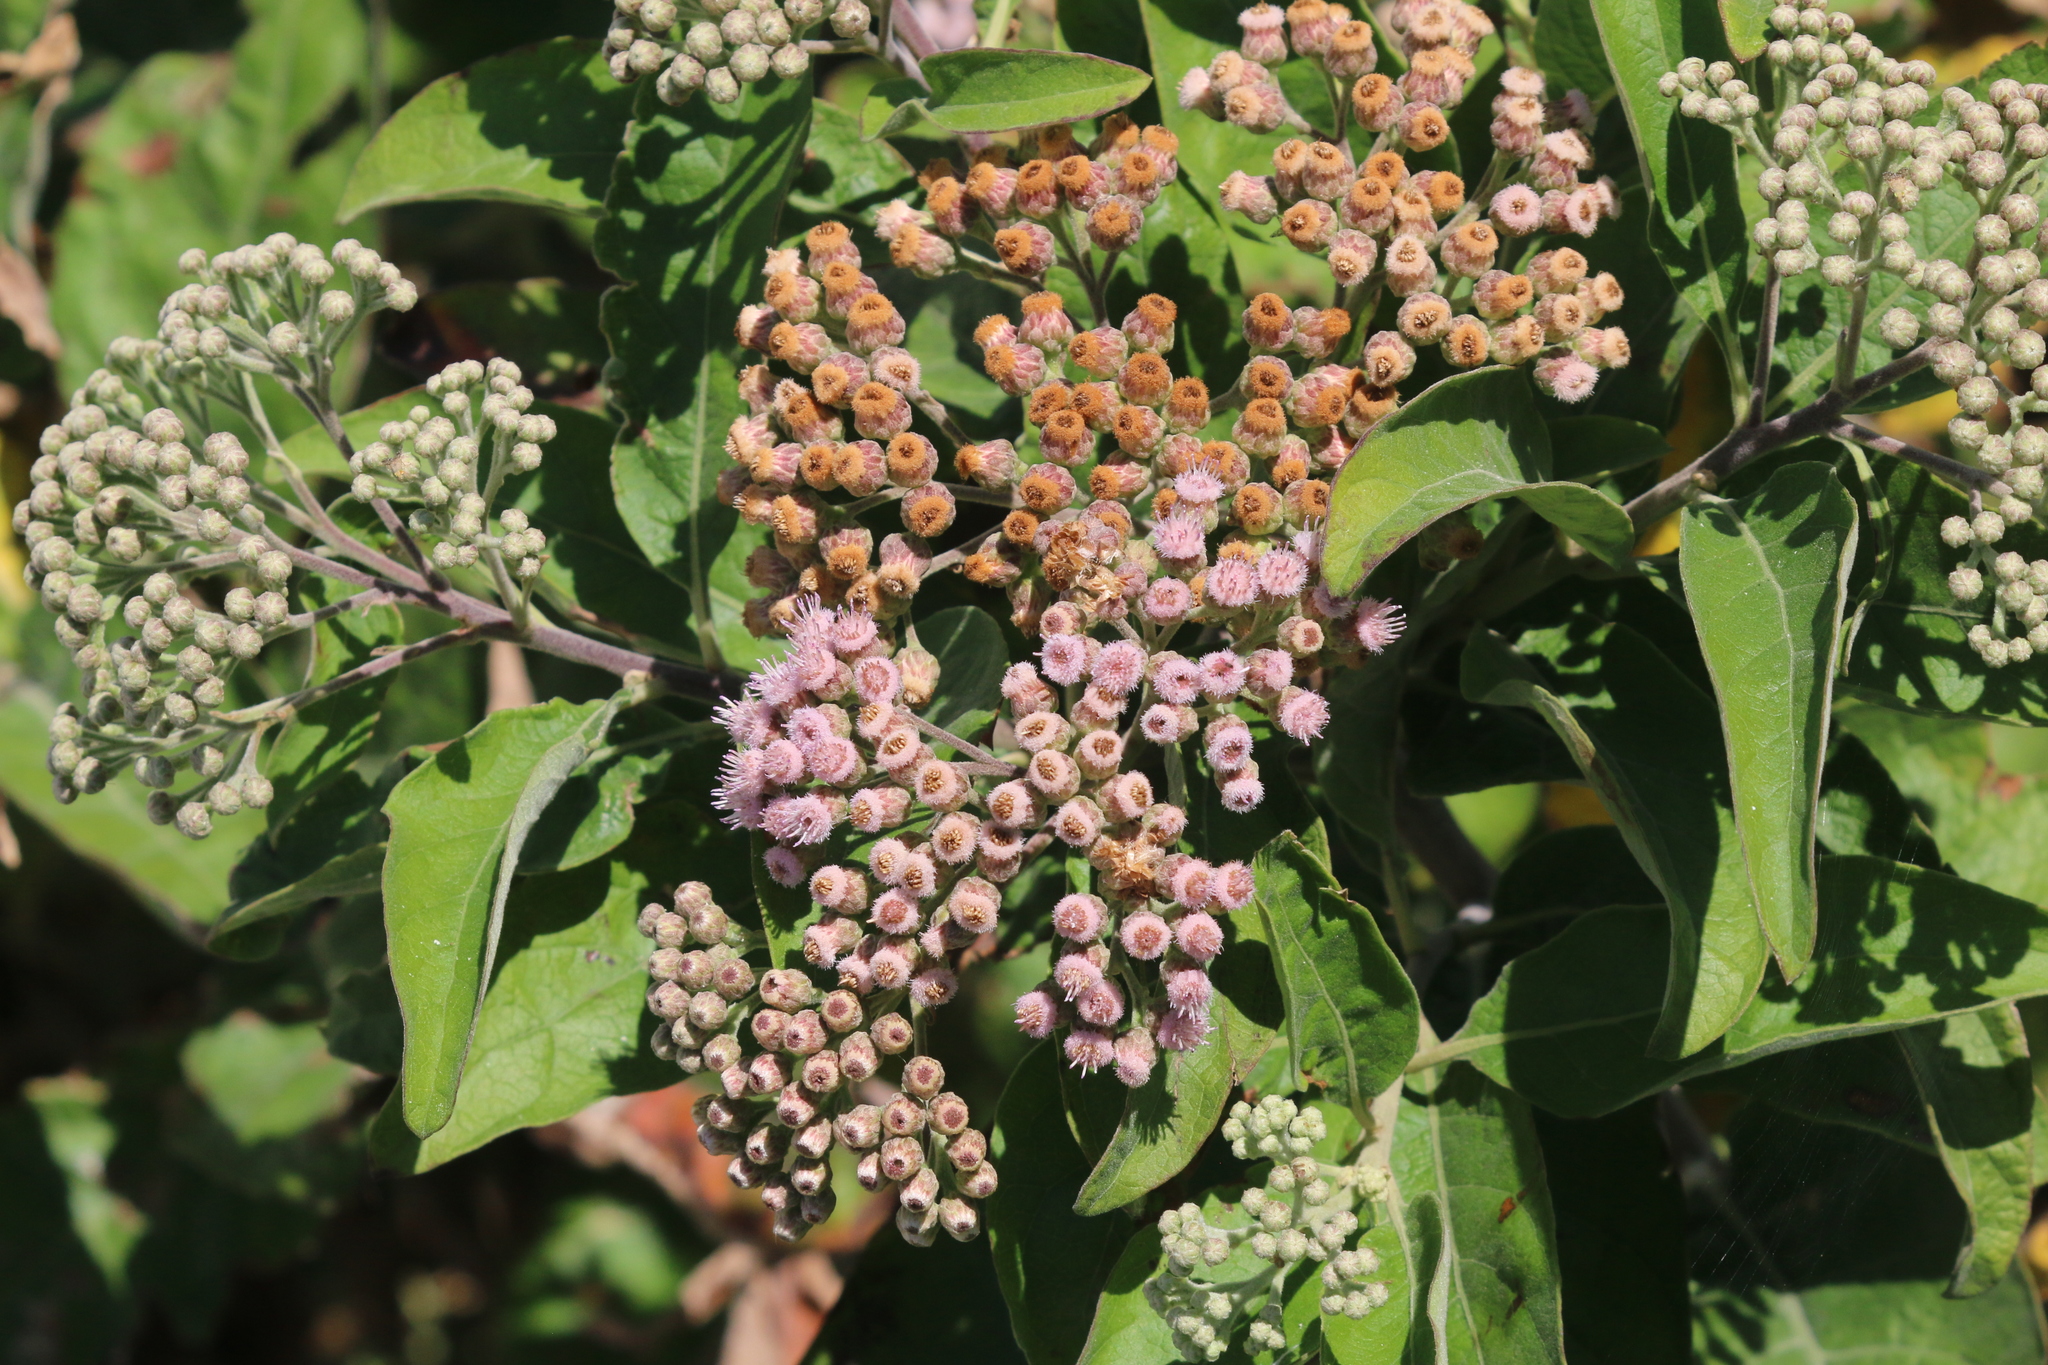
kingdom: Plantae
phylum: Tracheophyta
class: Magnoliopsida
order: Asterales
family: Asteraceae
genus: Pluchea
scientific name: Pluchea carolinensis
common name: Marsh fleabane
